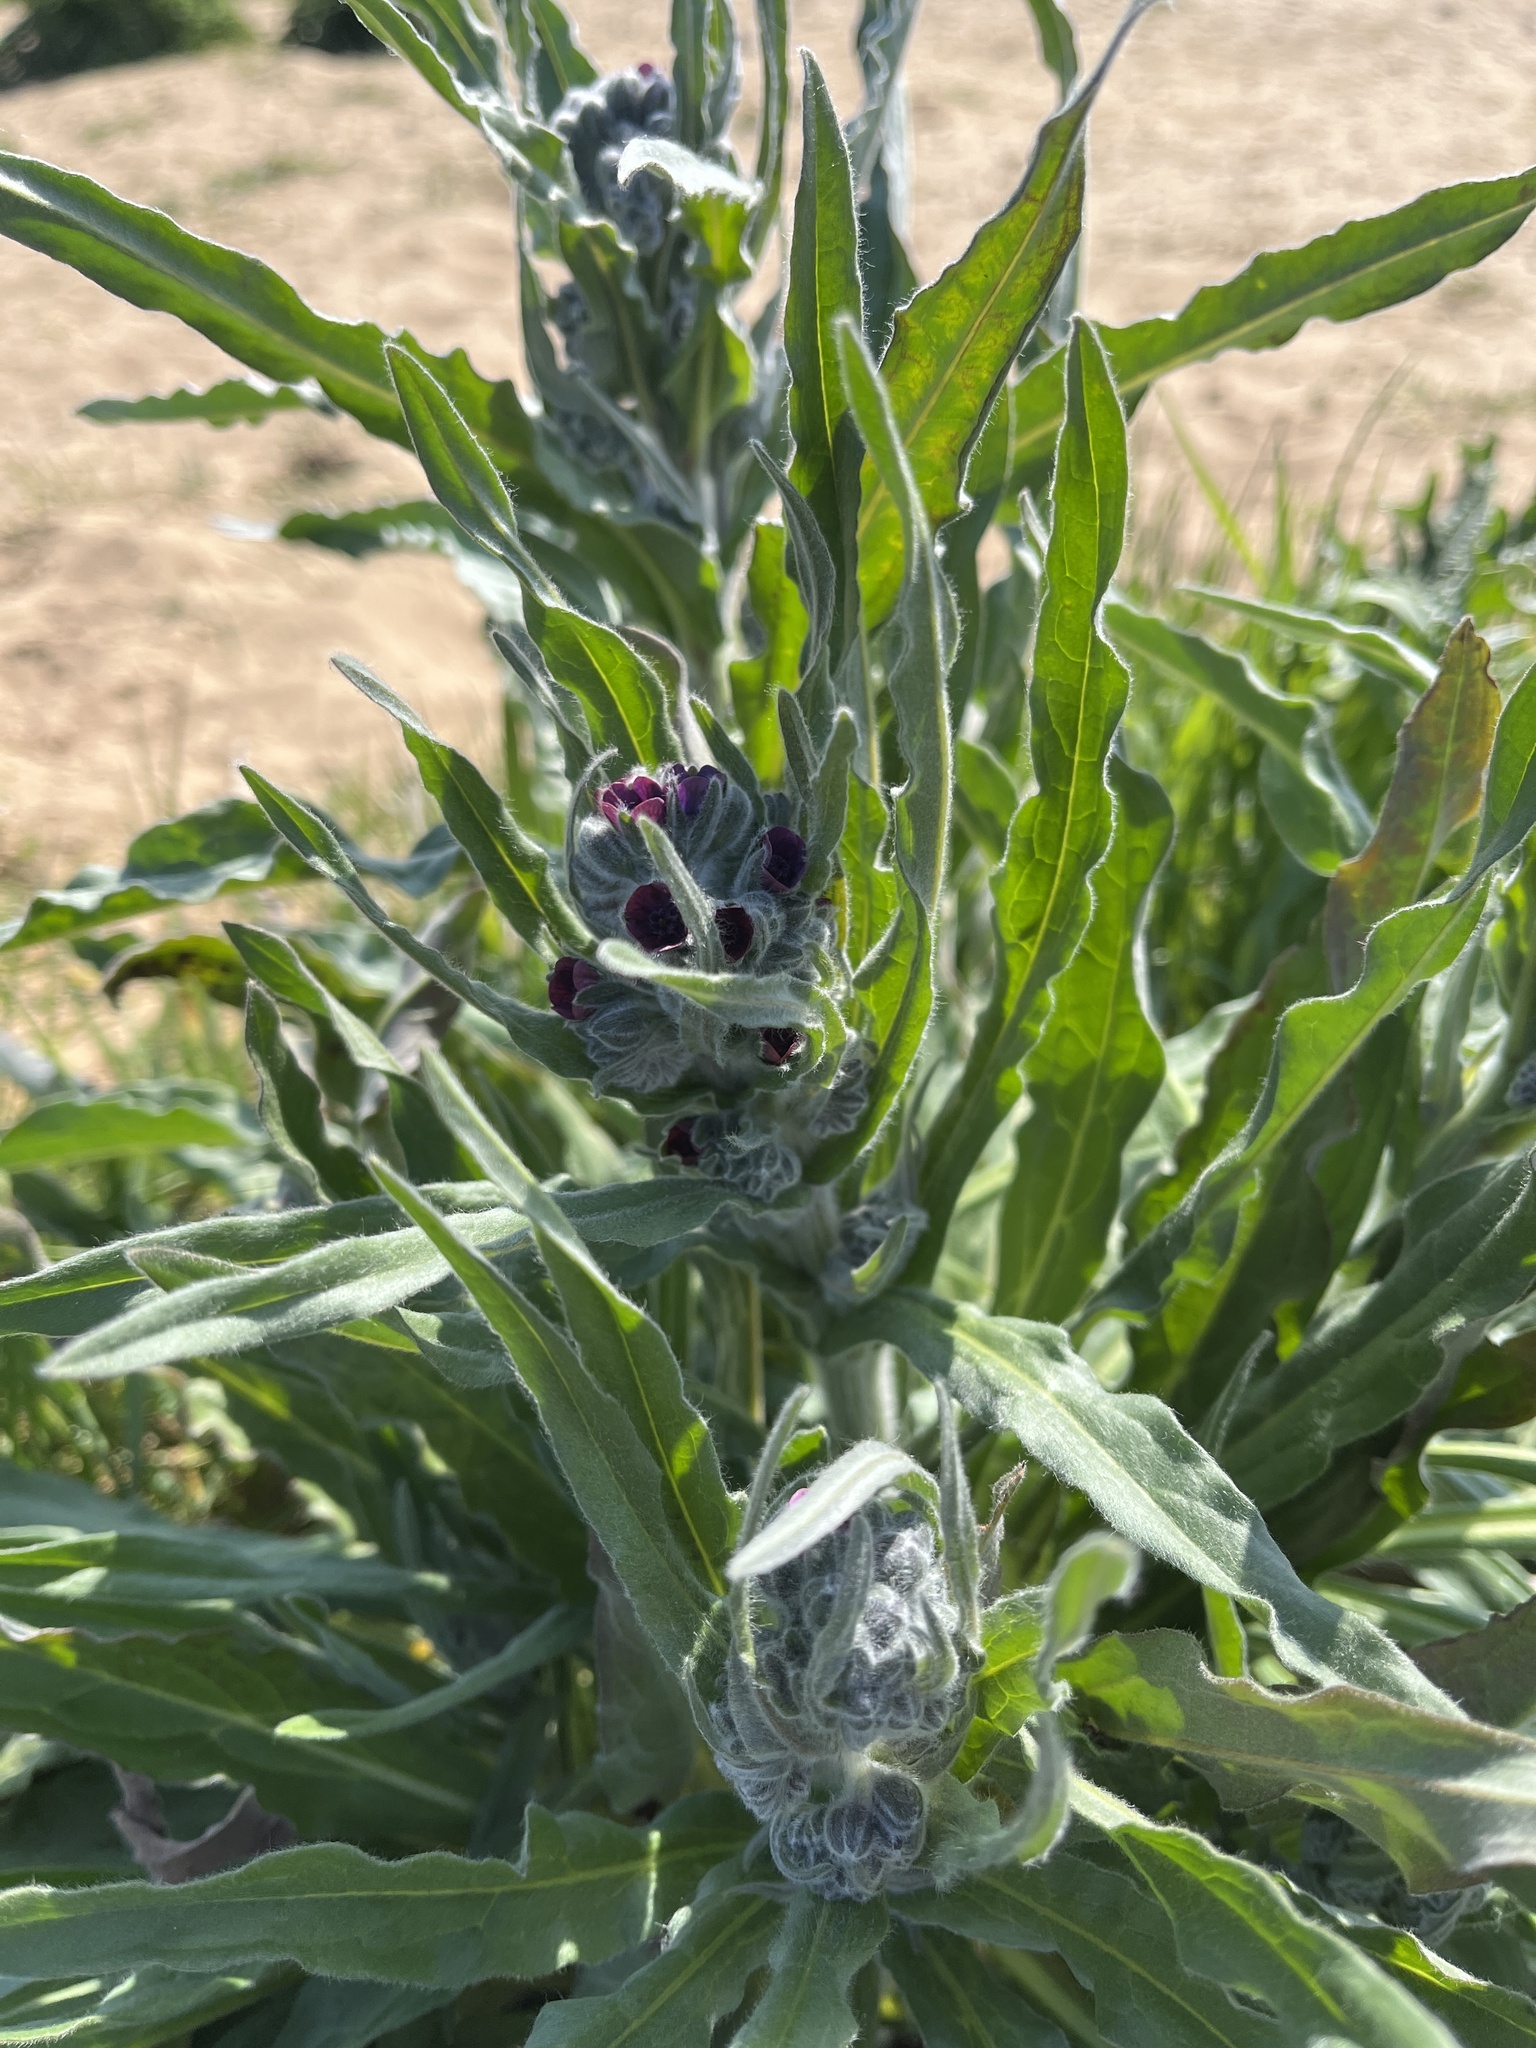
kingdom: Plantae
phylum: Tracheophyta
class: Magnoliopsida
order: Boraginales
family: Boraginaceae
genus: Cynoglossum
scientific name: Cynoglossum officinale
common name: Hound's-tongue
